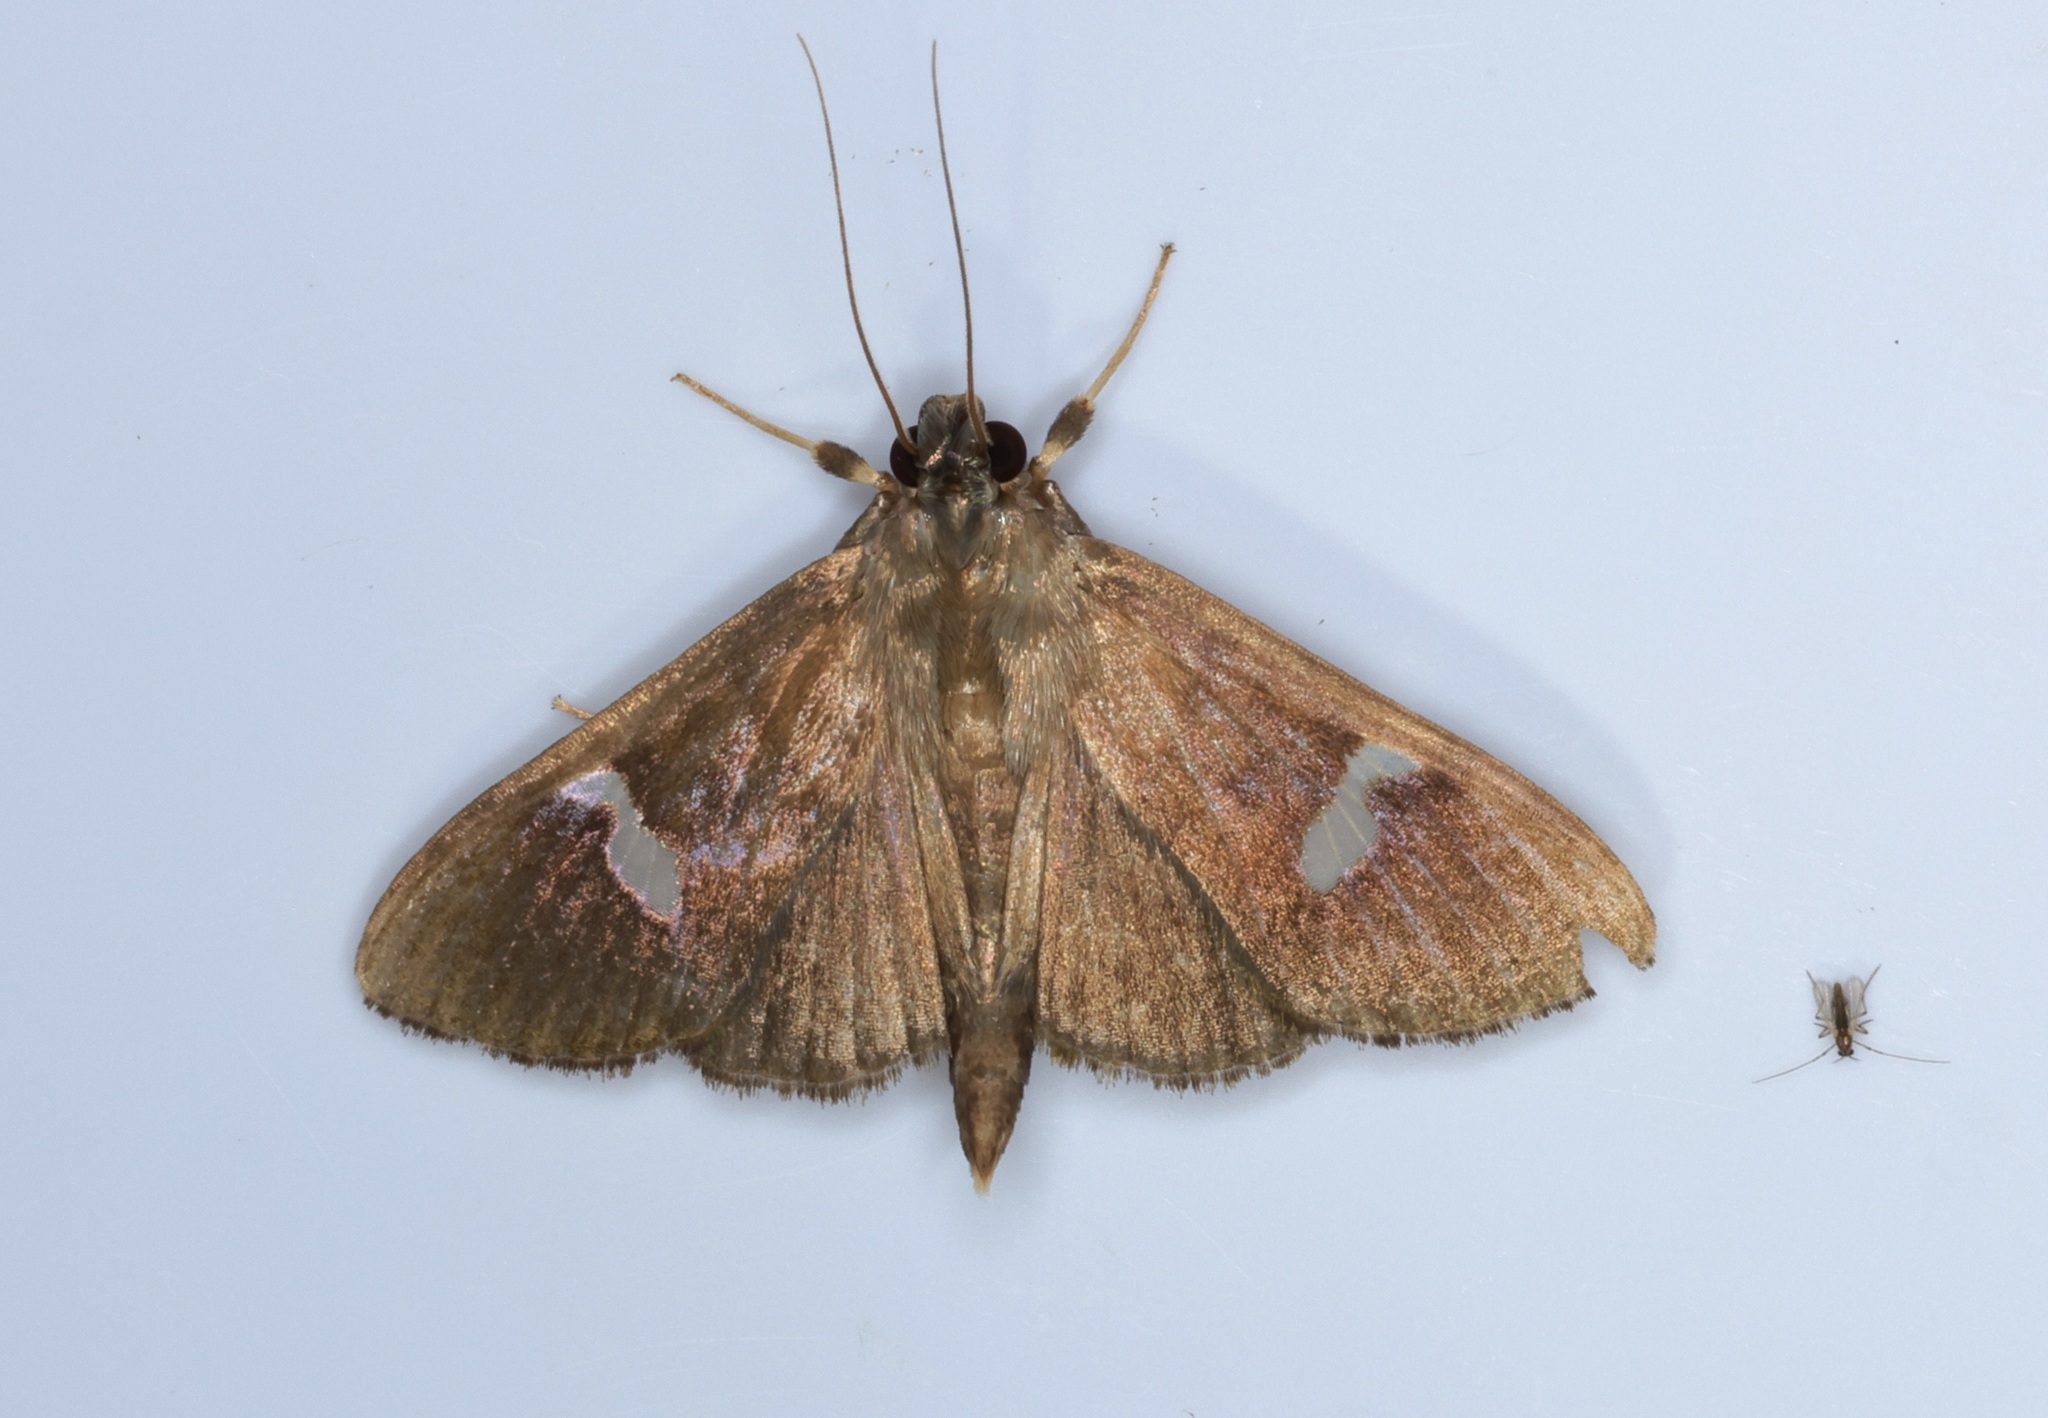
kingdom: Animalia
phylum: Arthropoda
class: Insecta
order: Lepidoptera
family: Crambidae
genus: Nosophora
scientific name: Nosophora albiguttalis
